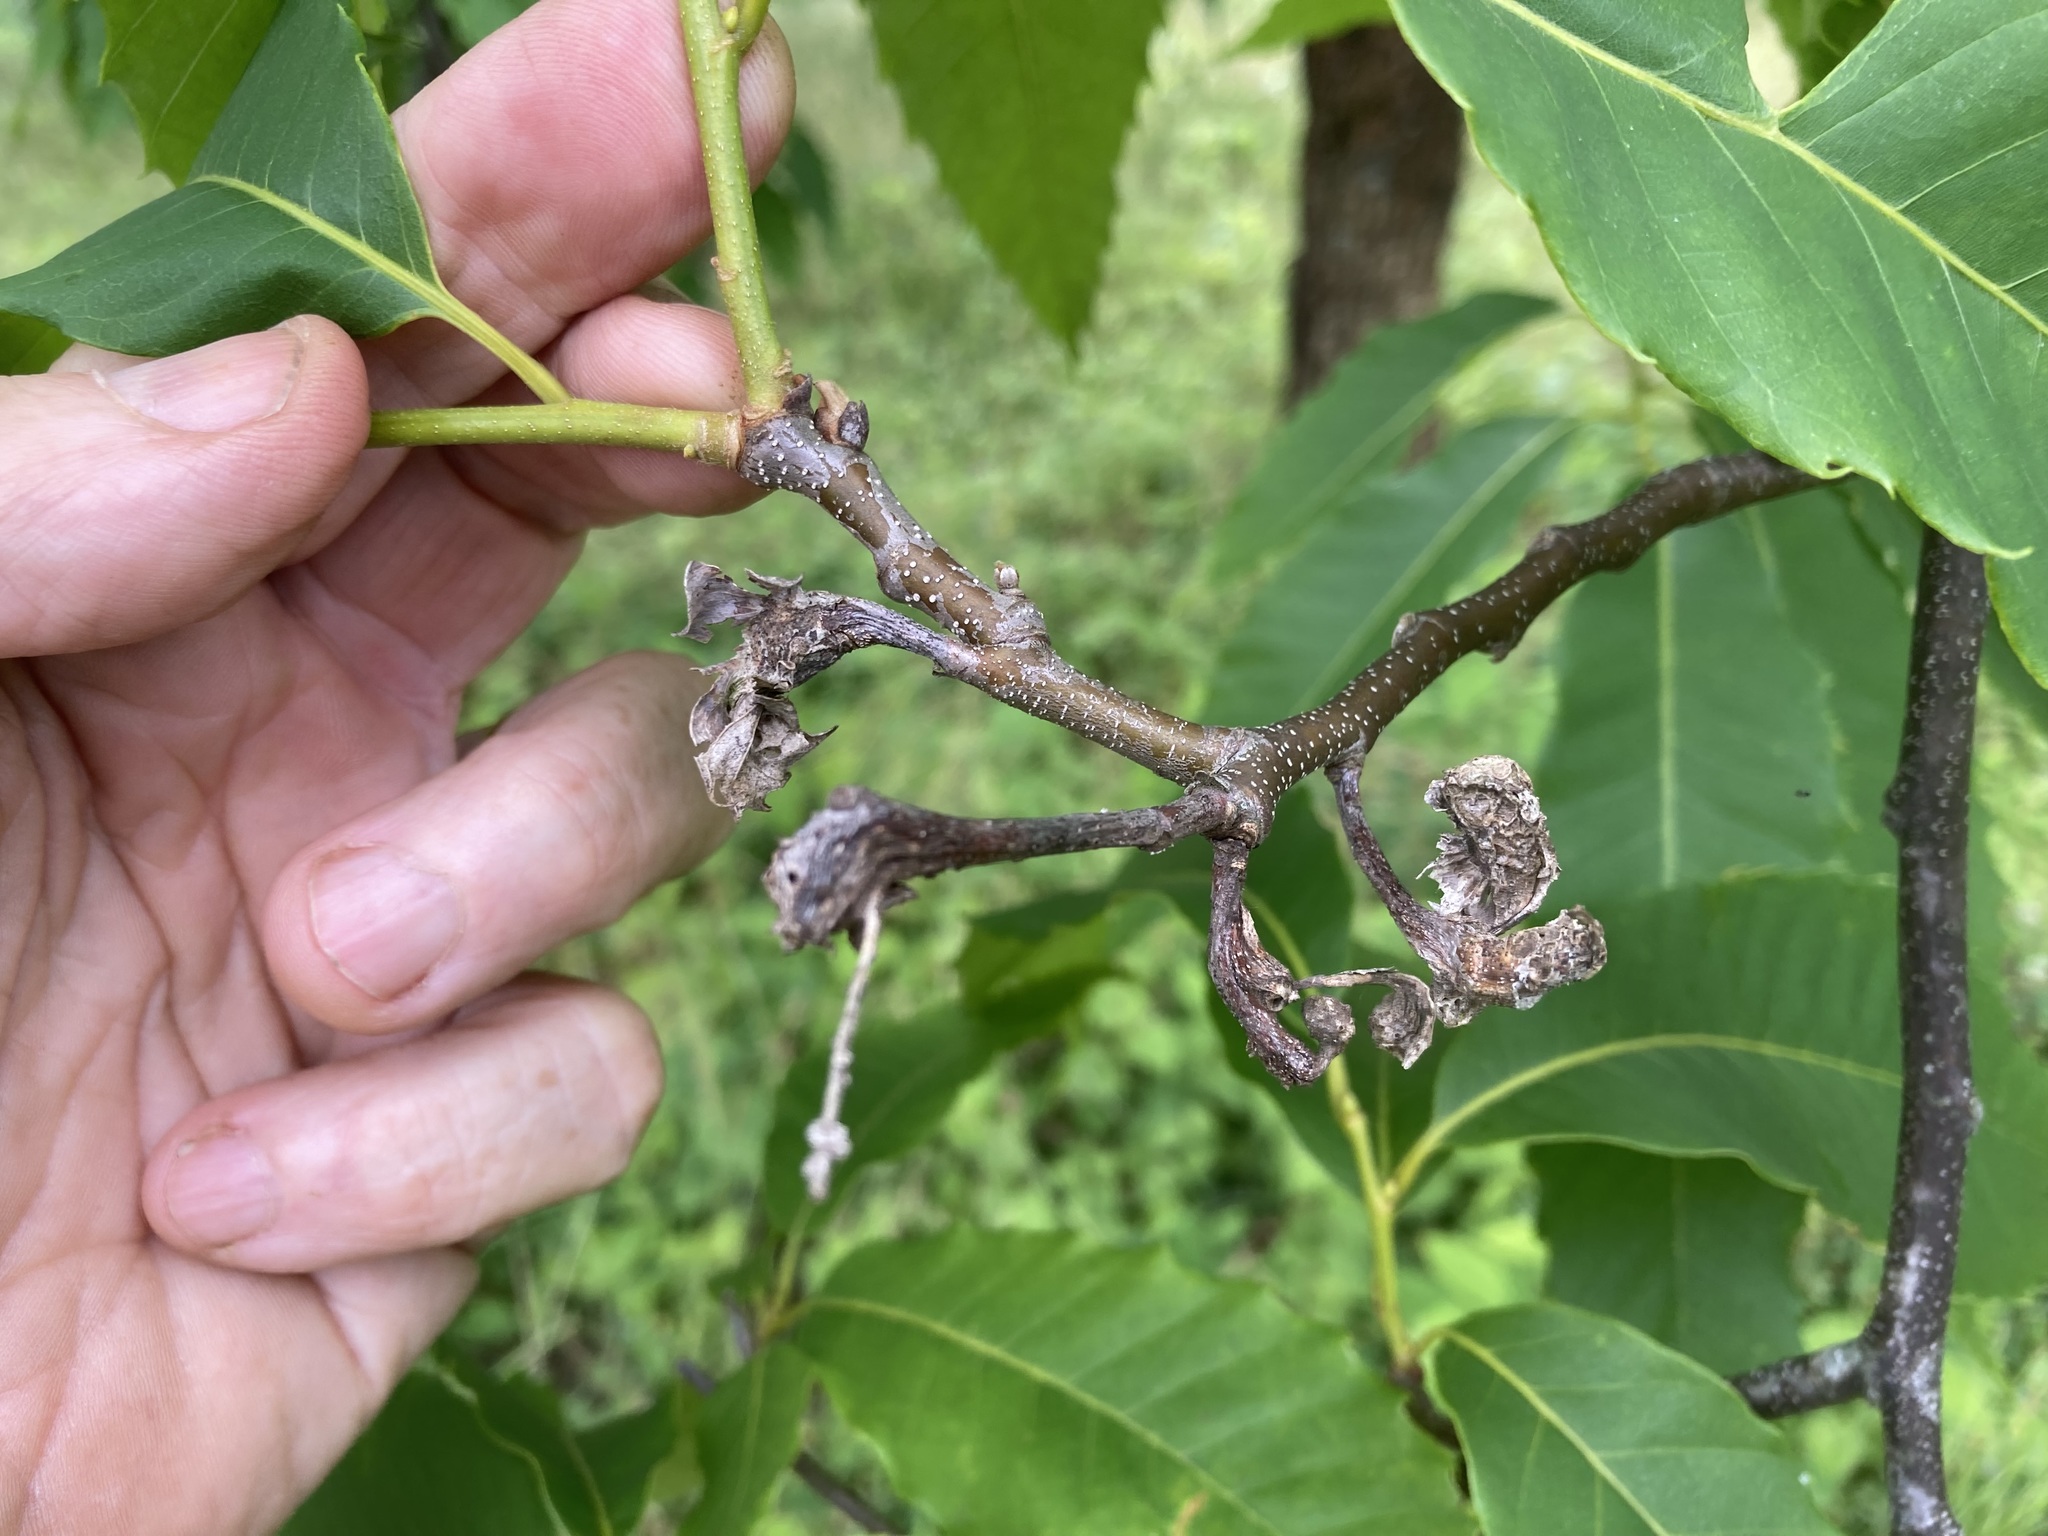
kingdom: Animalia
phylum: Arthropoda
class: Insecta
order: Hymenoptera
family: Cynipidae
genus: Dryocosmus
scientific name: Dryocosmus kuriphilus
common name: Asian chestnut gall wasp
